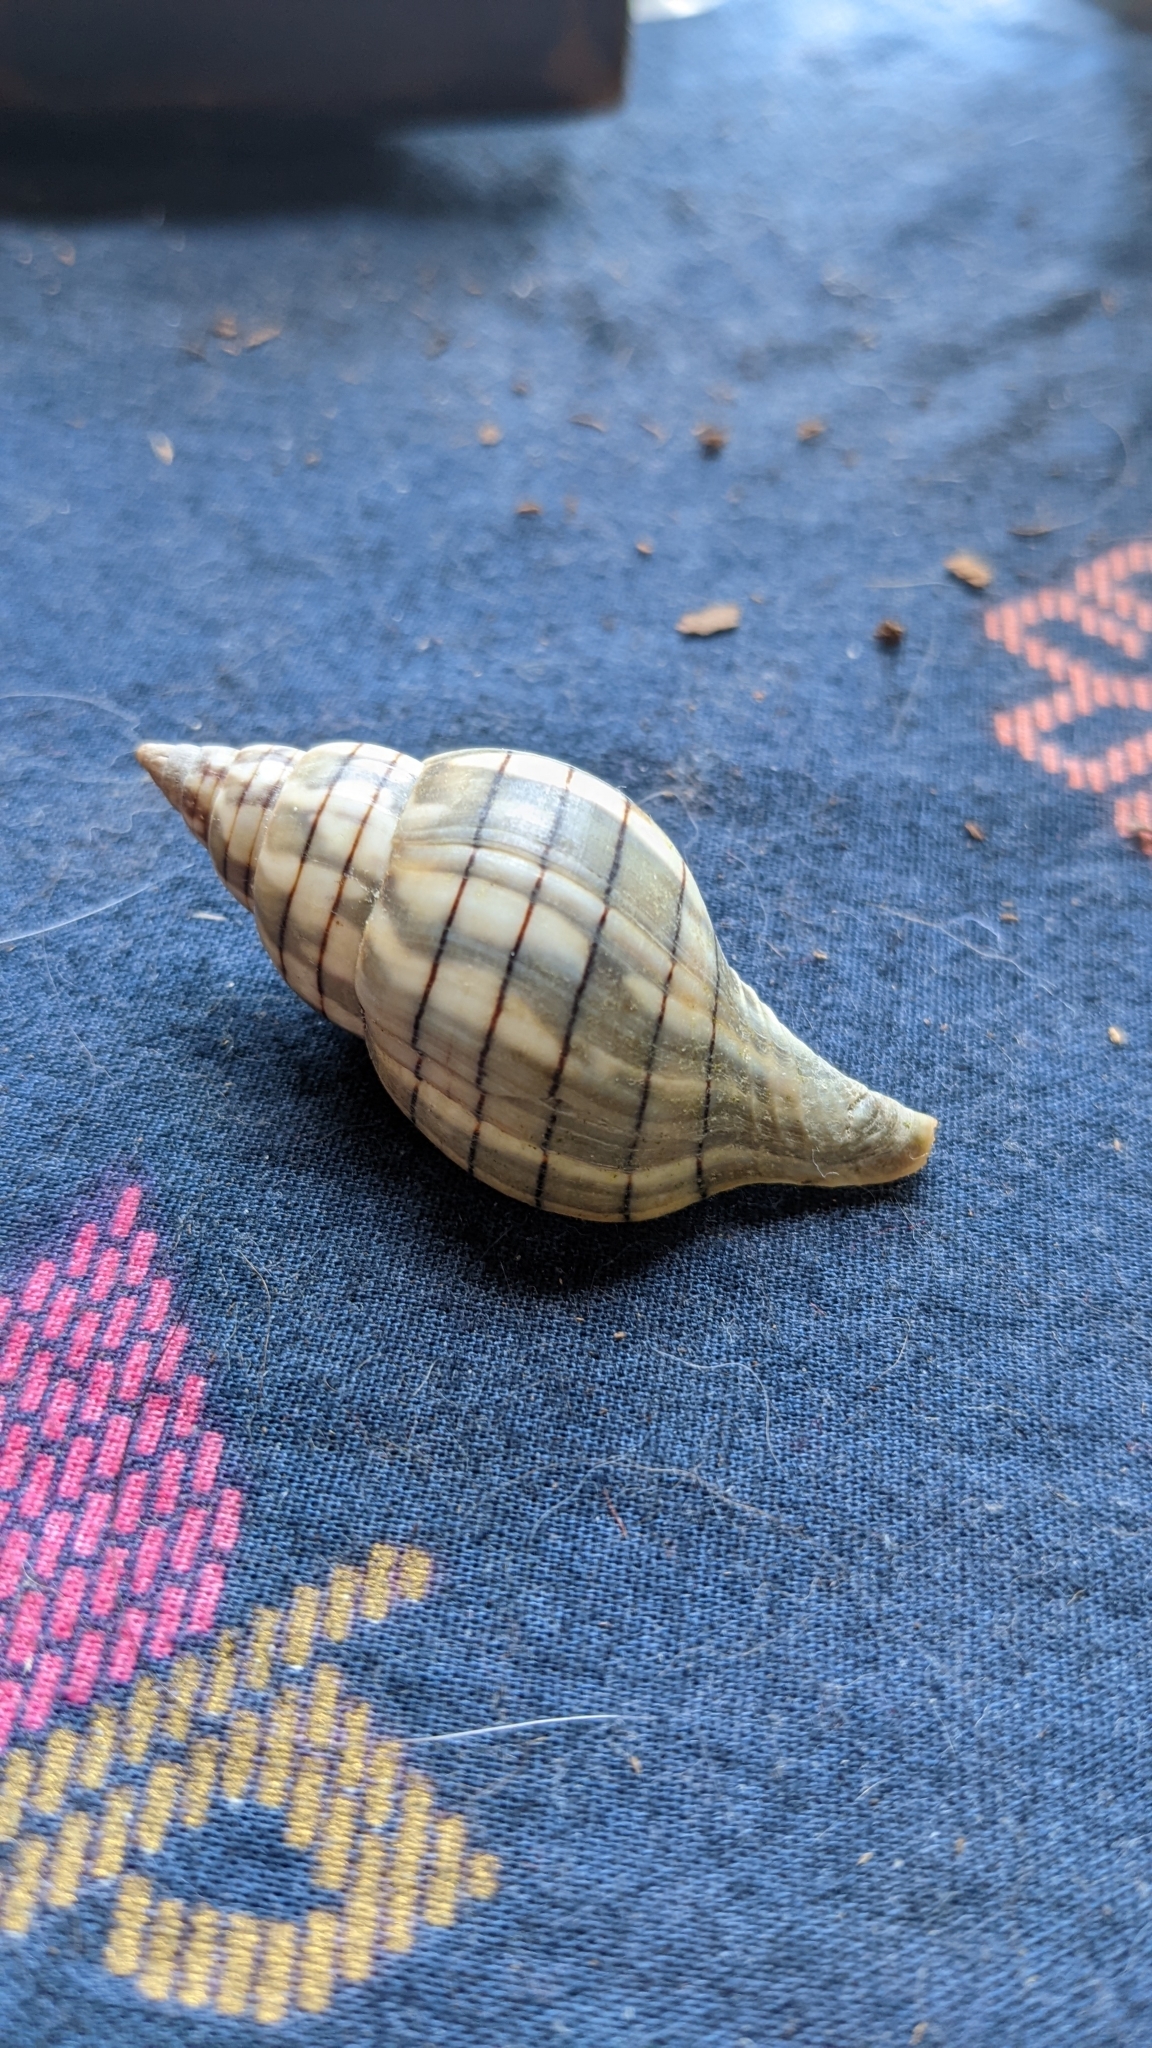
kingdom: Animalia
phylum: Mollusca
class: Gastropoda
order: Neogastropoda
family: Fasciolariidae
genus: Cinctura
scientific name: Cinctura hunteria
